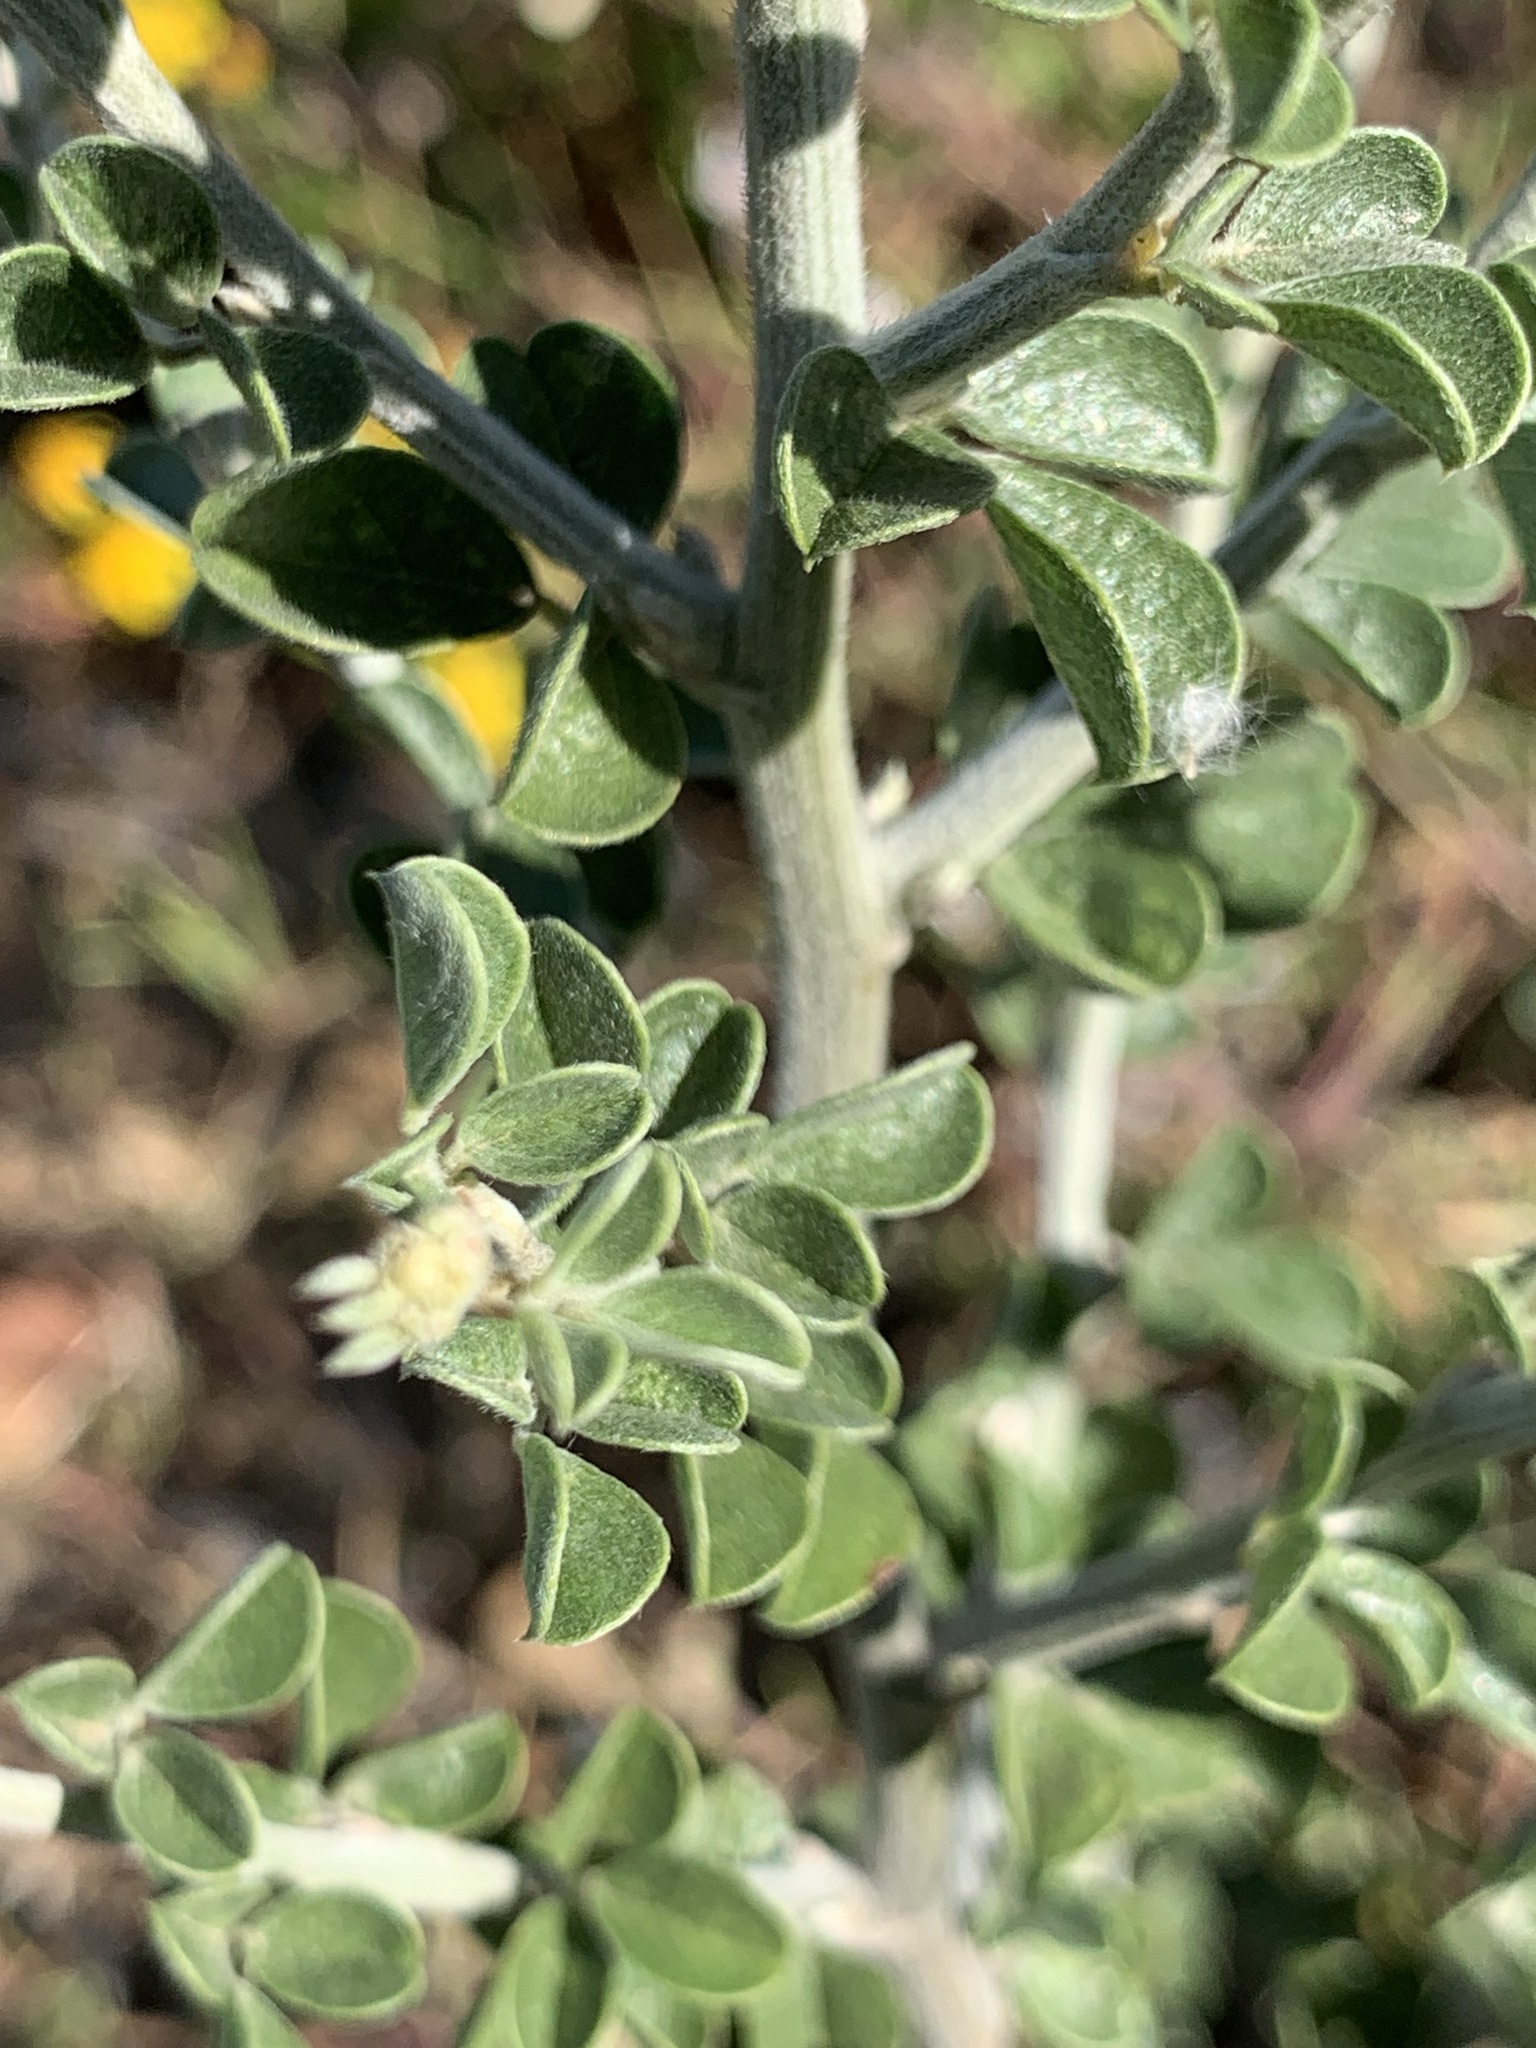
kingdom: Plantae
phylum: Tracheophyta
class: Magnoliopsida
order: Fabales
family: Fabaceae
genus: Psoralea
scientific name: Psoralea hirta
